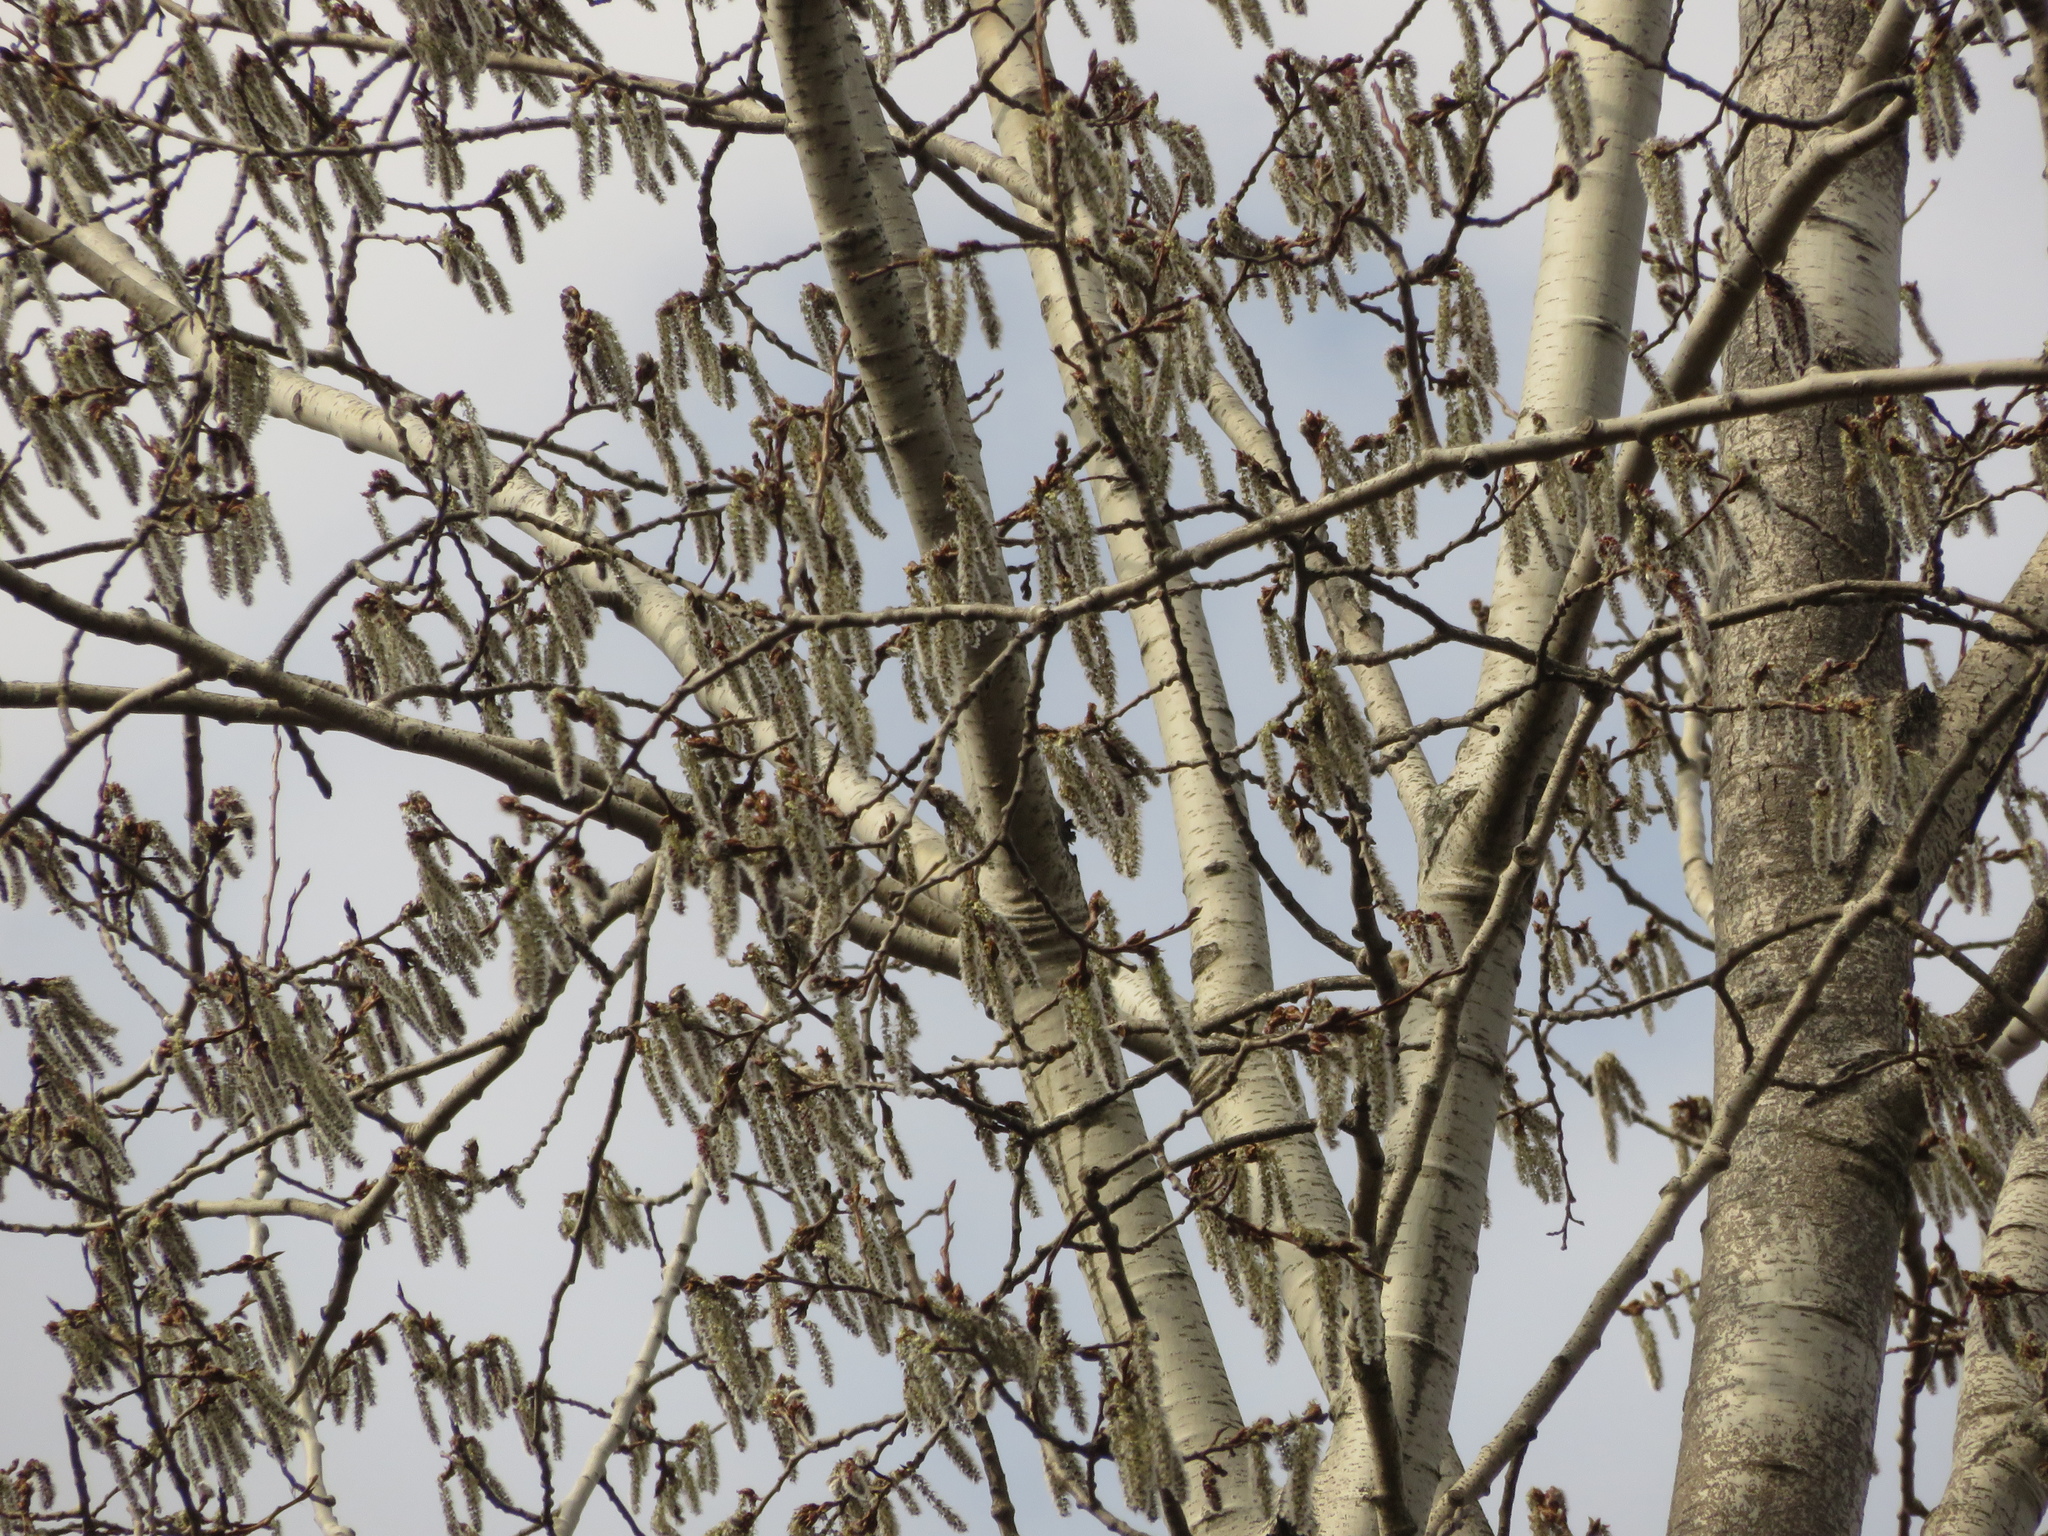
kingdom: Plantae
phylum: Tracheophyta
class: Magnoliopsida
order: Malpighiales
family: Salicaceae
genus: Populus
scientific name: Populus tremuloides
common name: Quaking aspen
